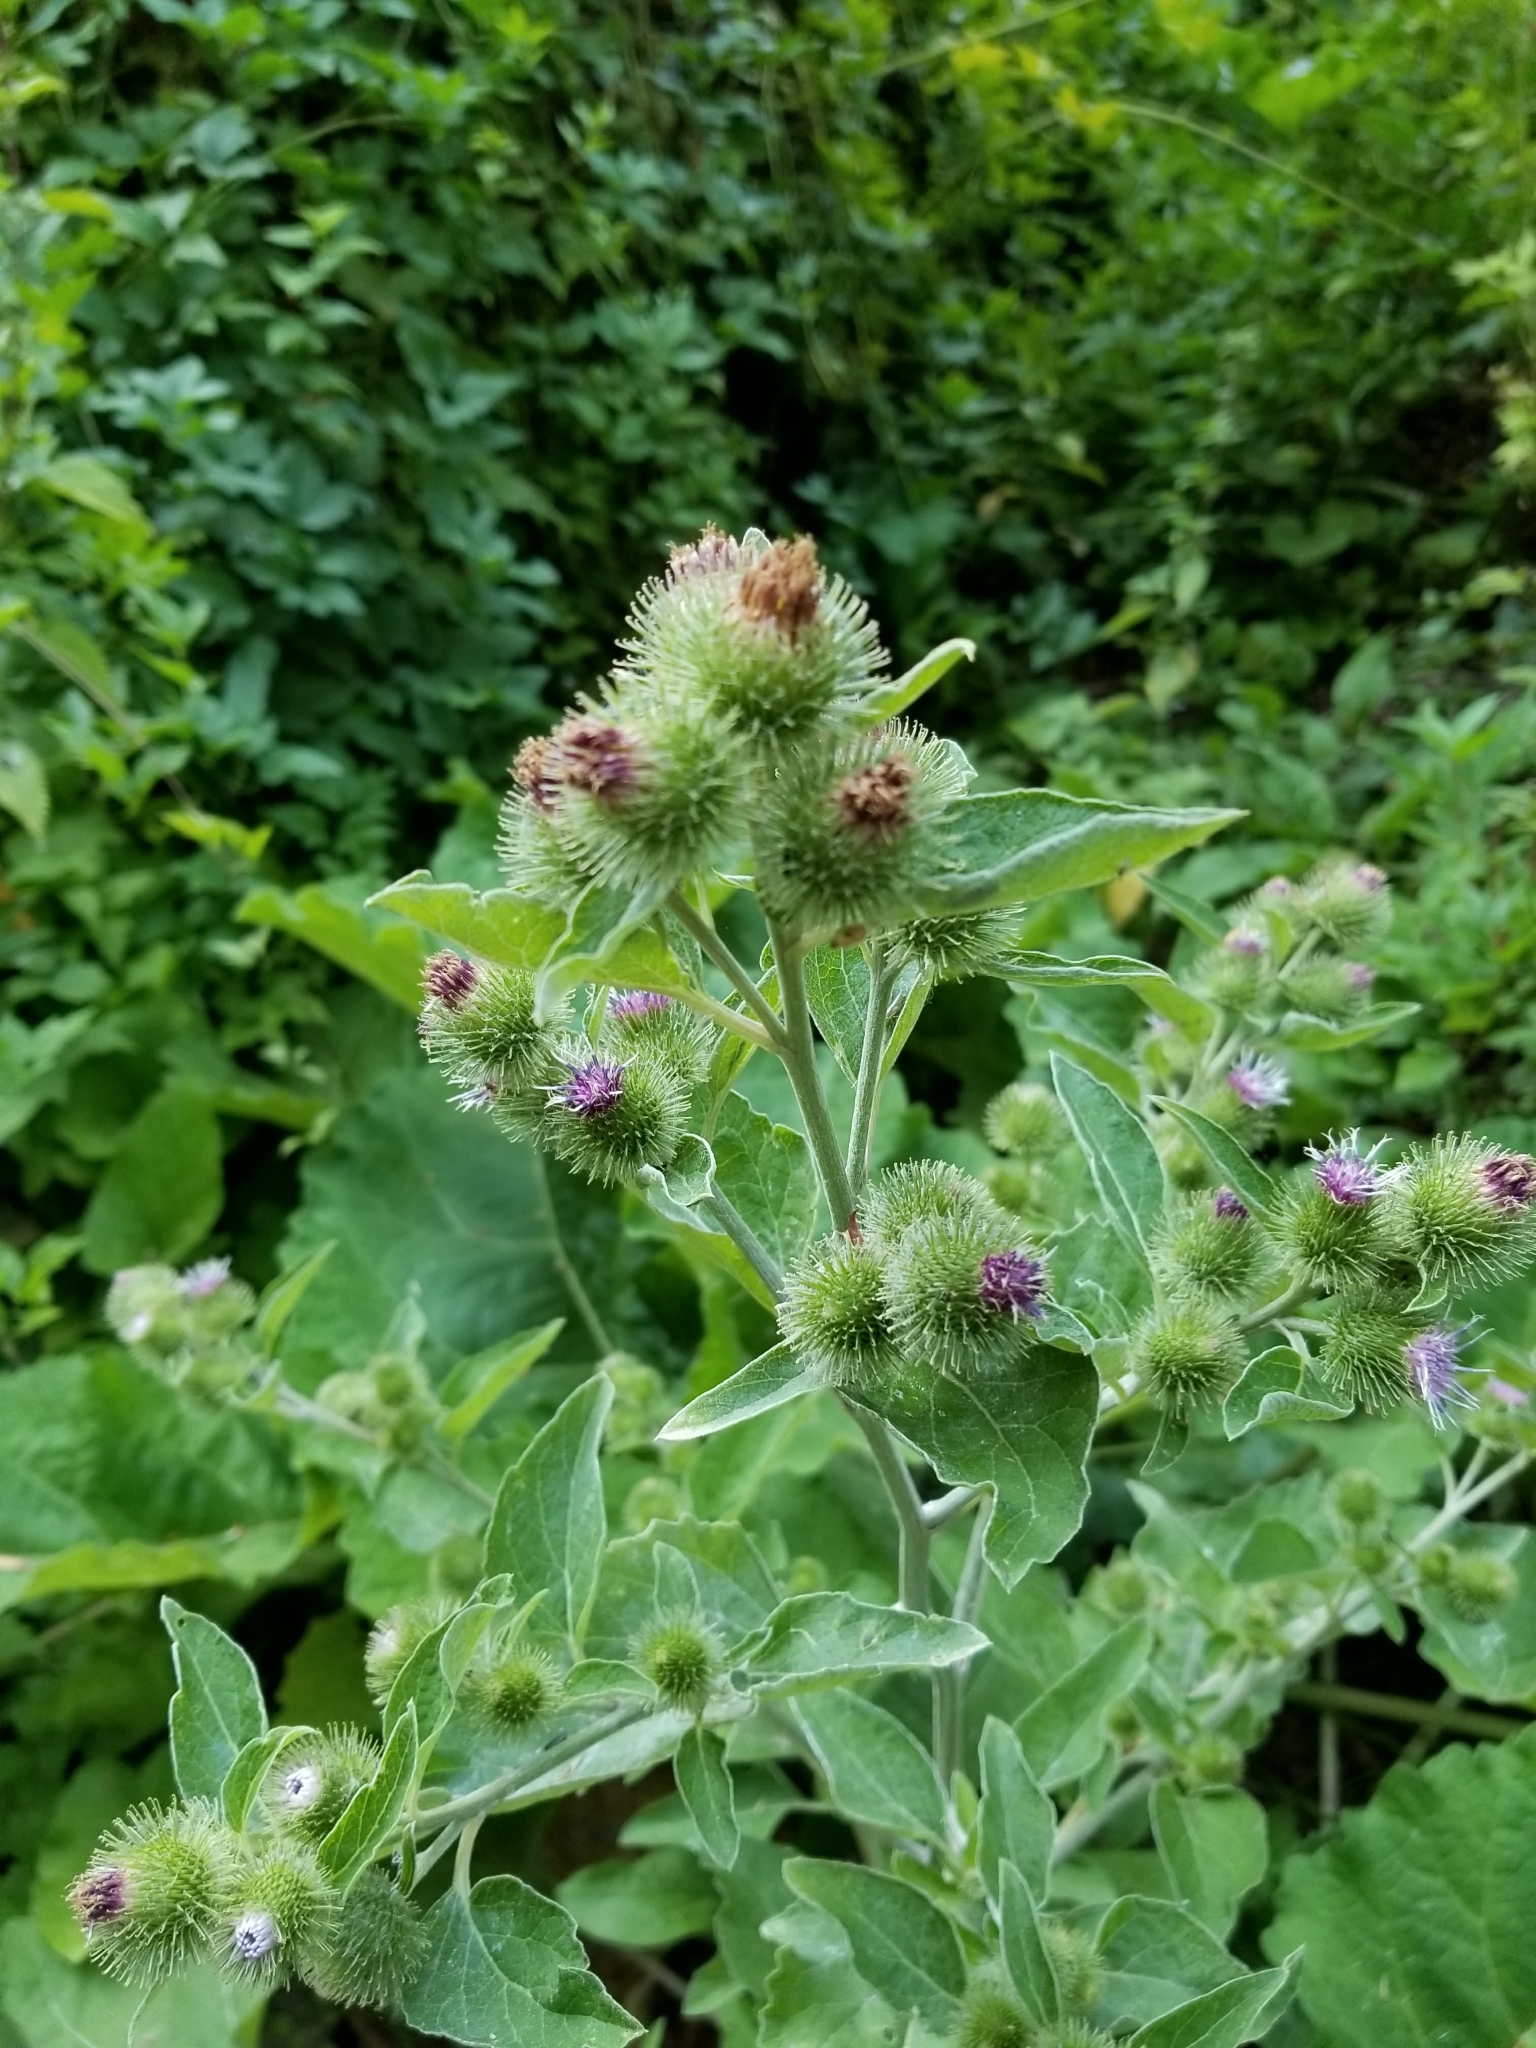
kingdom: Plantae
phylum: Tracheophyta
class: Magnoliopsida
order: Asterales
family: Asteraceae
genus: Arctium
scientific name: Arctium minus
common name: Lesser burdock
